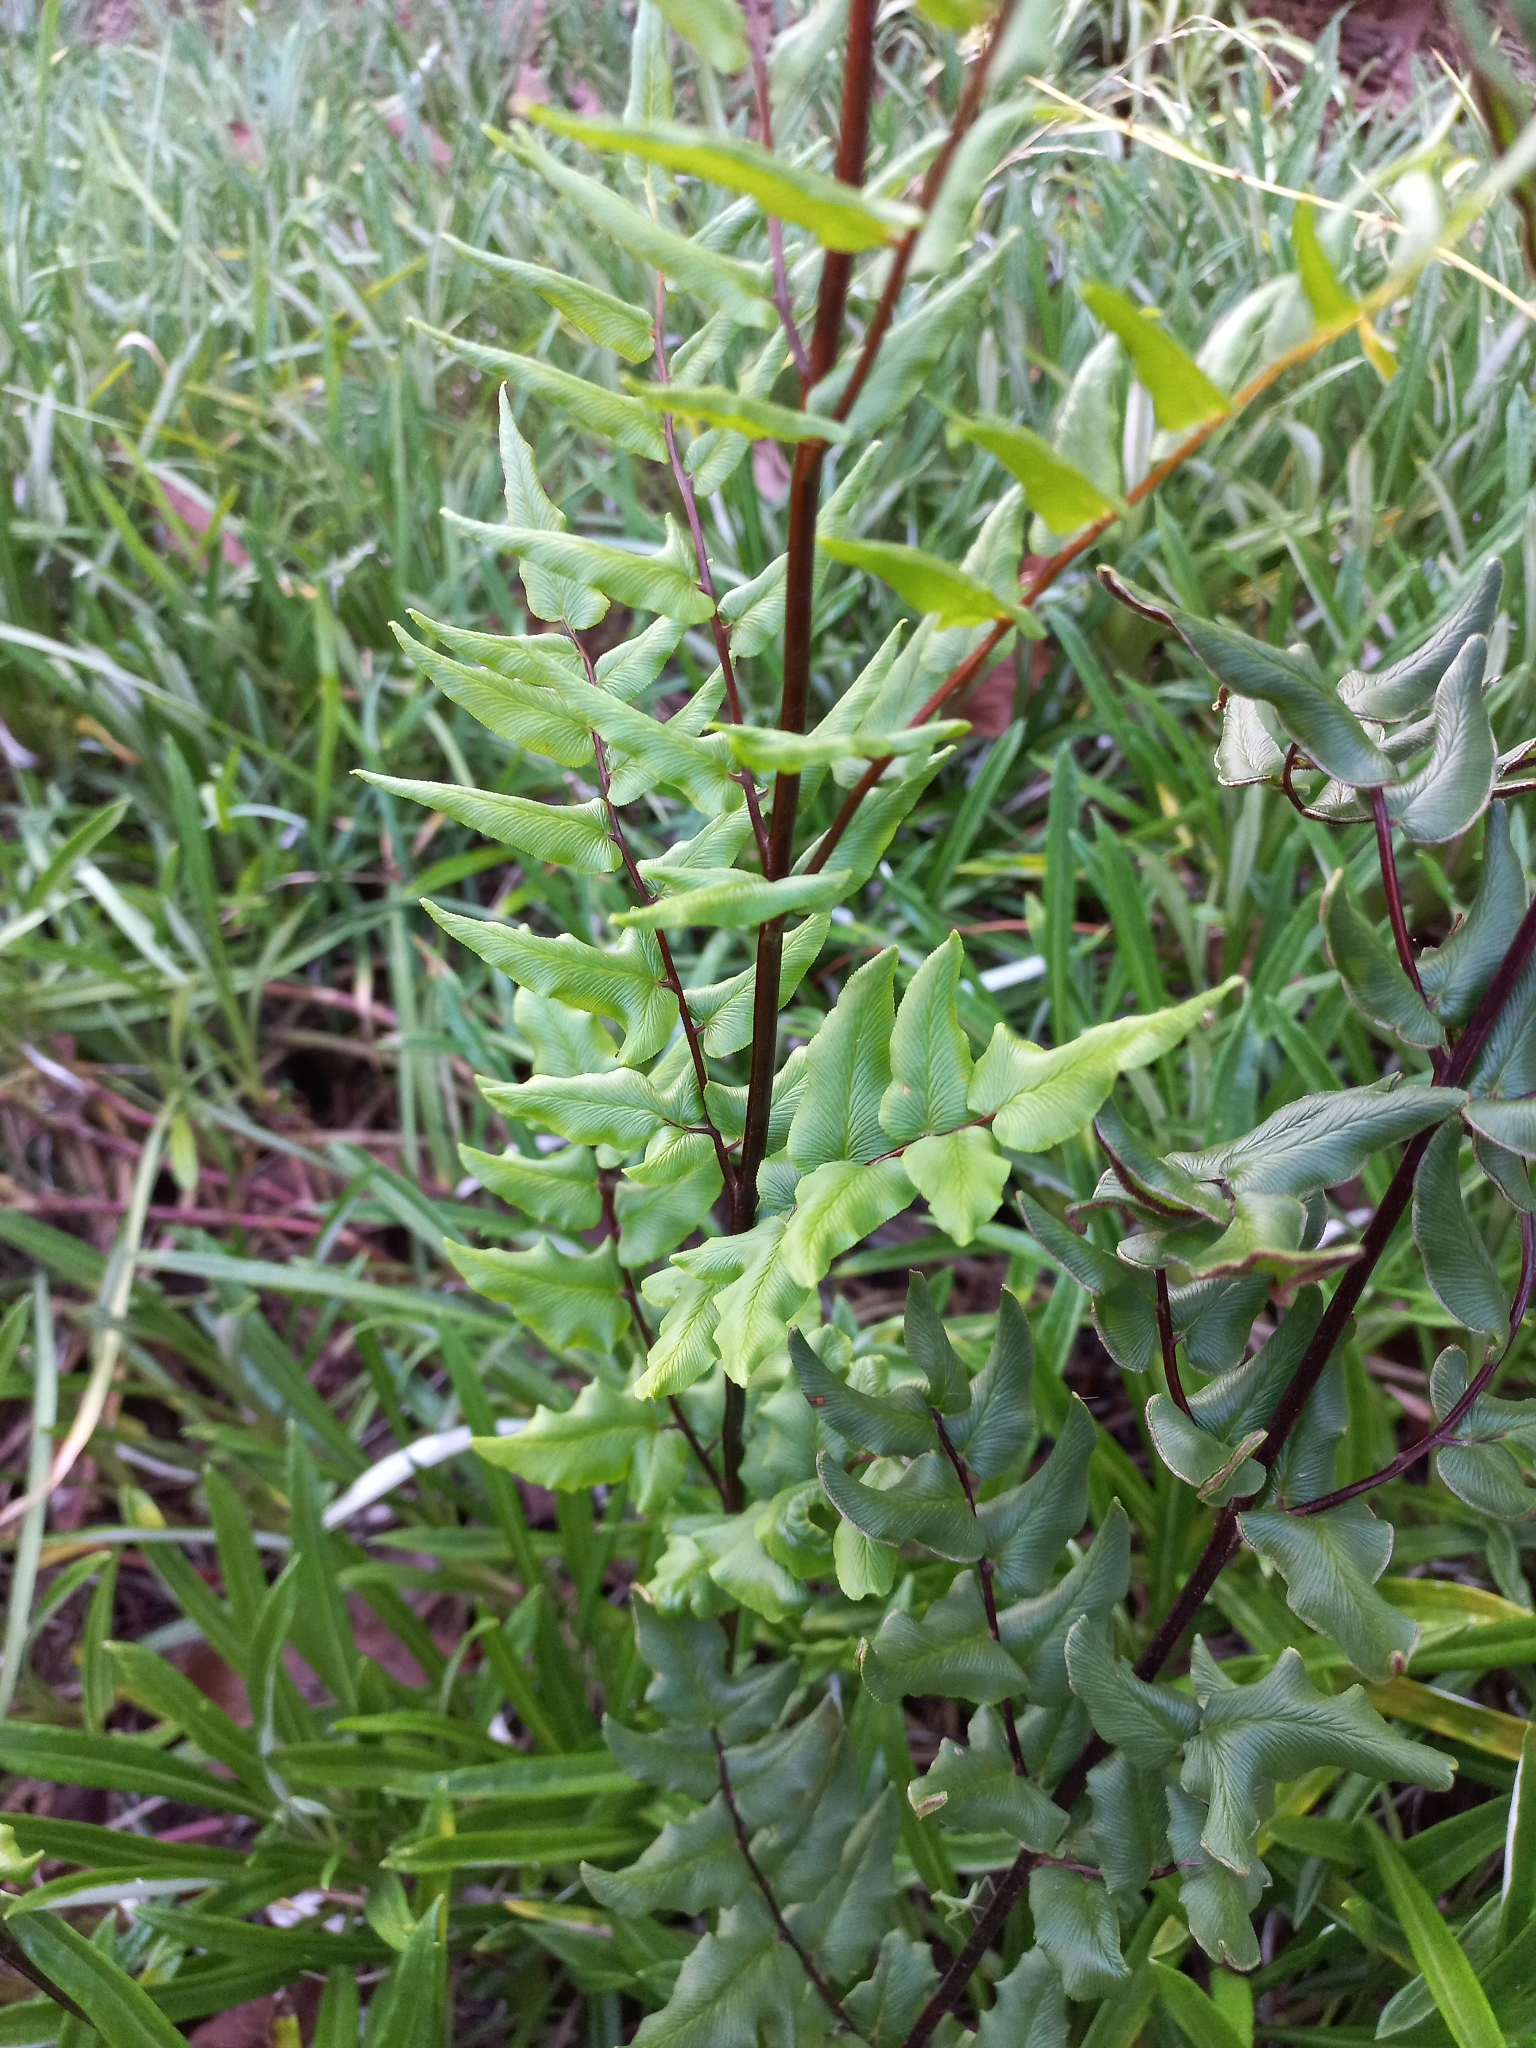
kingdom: Plantae
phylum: Tracheophyta
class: Polypodiopsida
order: Polypodiales
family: Pteridaceae
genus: Cheilanthes
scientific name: Cheilanthes viridis
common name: Green cliffbrake
